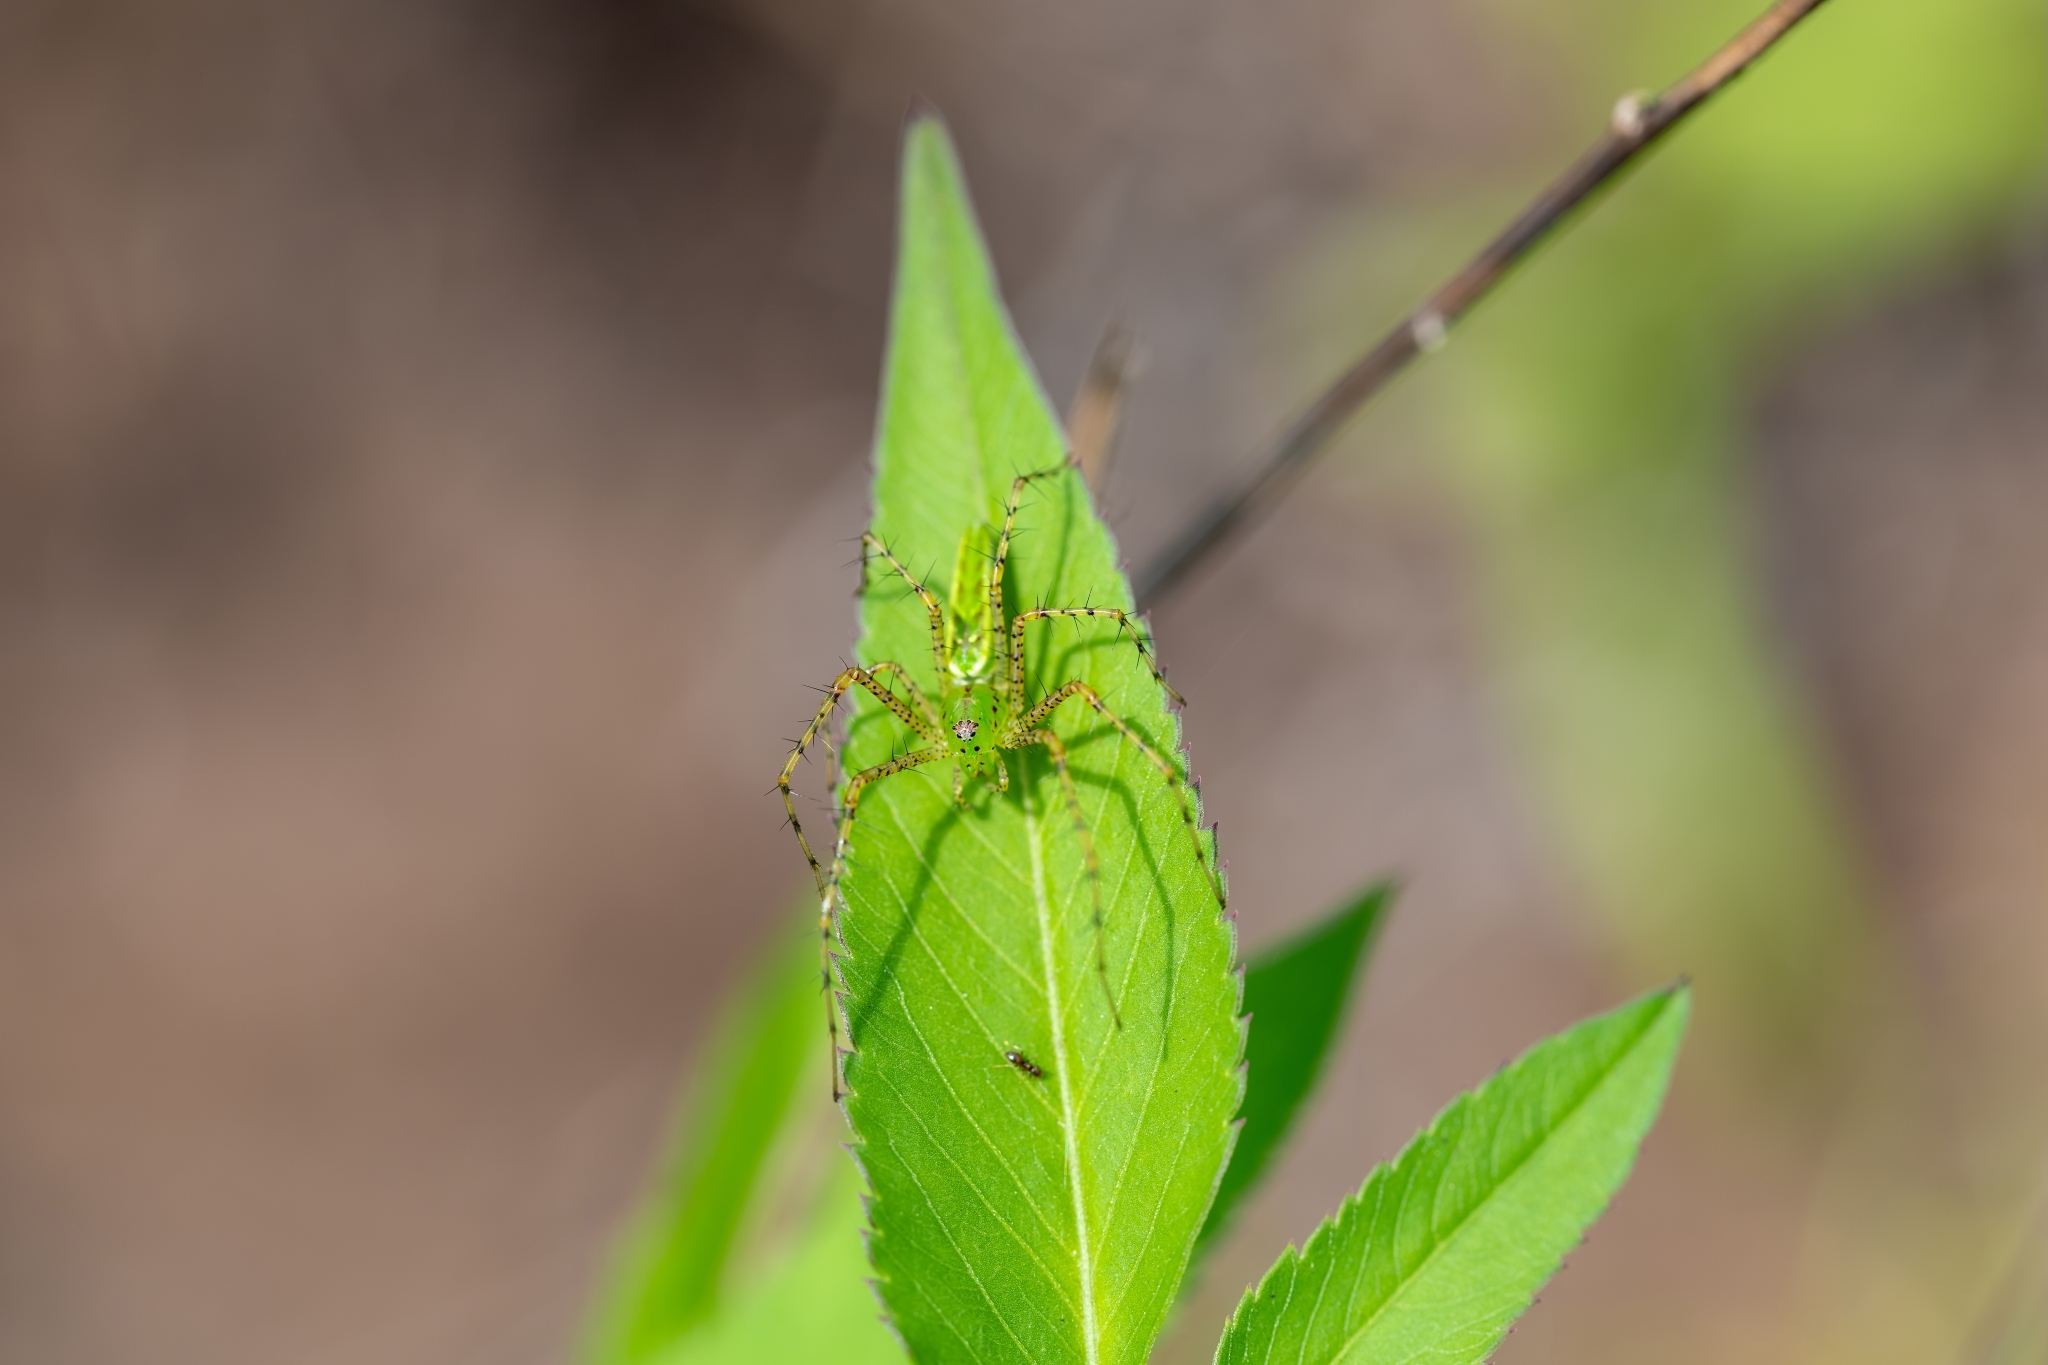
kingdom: Animalia
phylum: Arthropoda
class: Arachnida
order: Araneae
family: Oxyopidae
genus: Peucetia
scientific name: Peucetia viridans
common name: Lynx spiders
